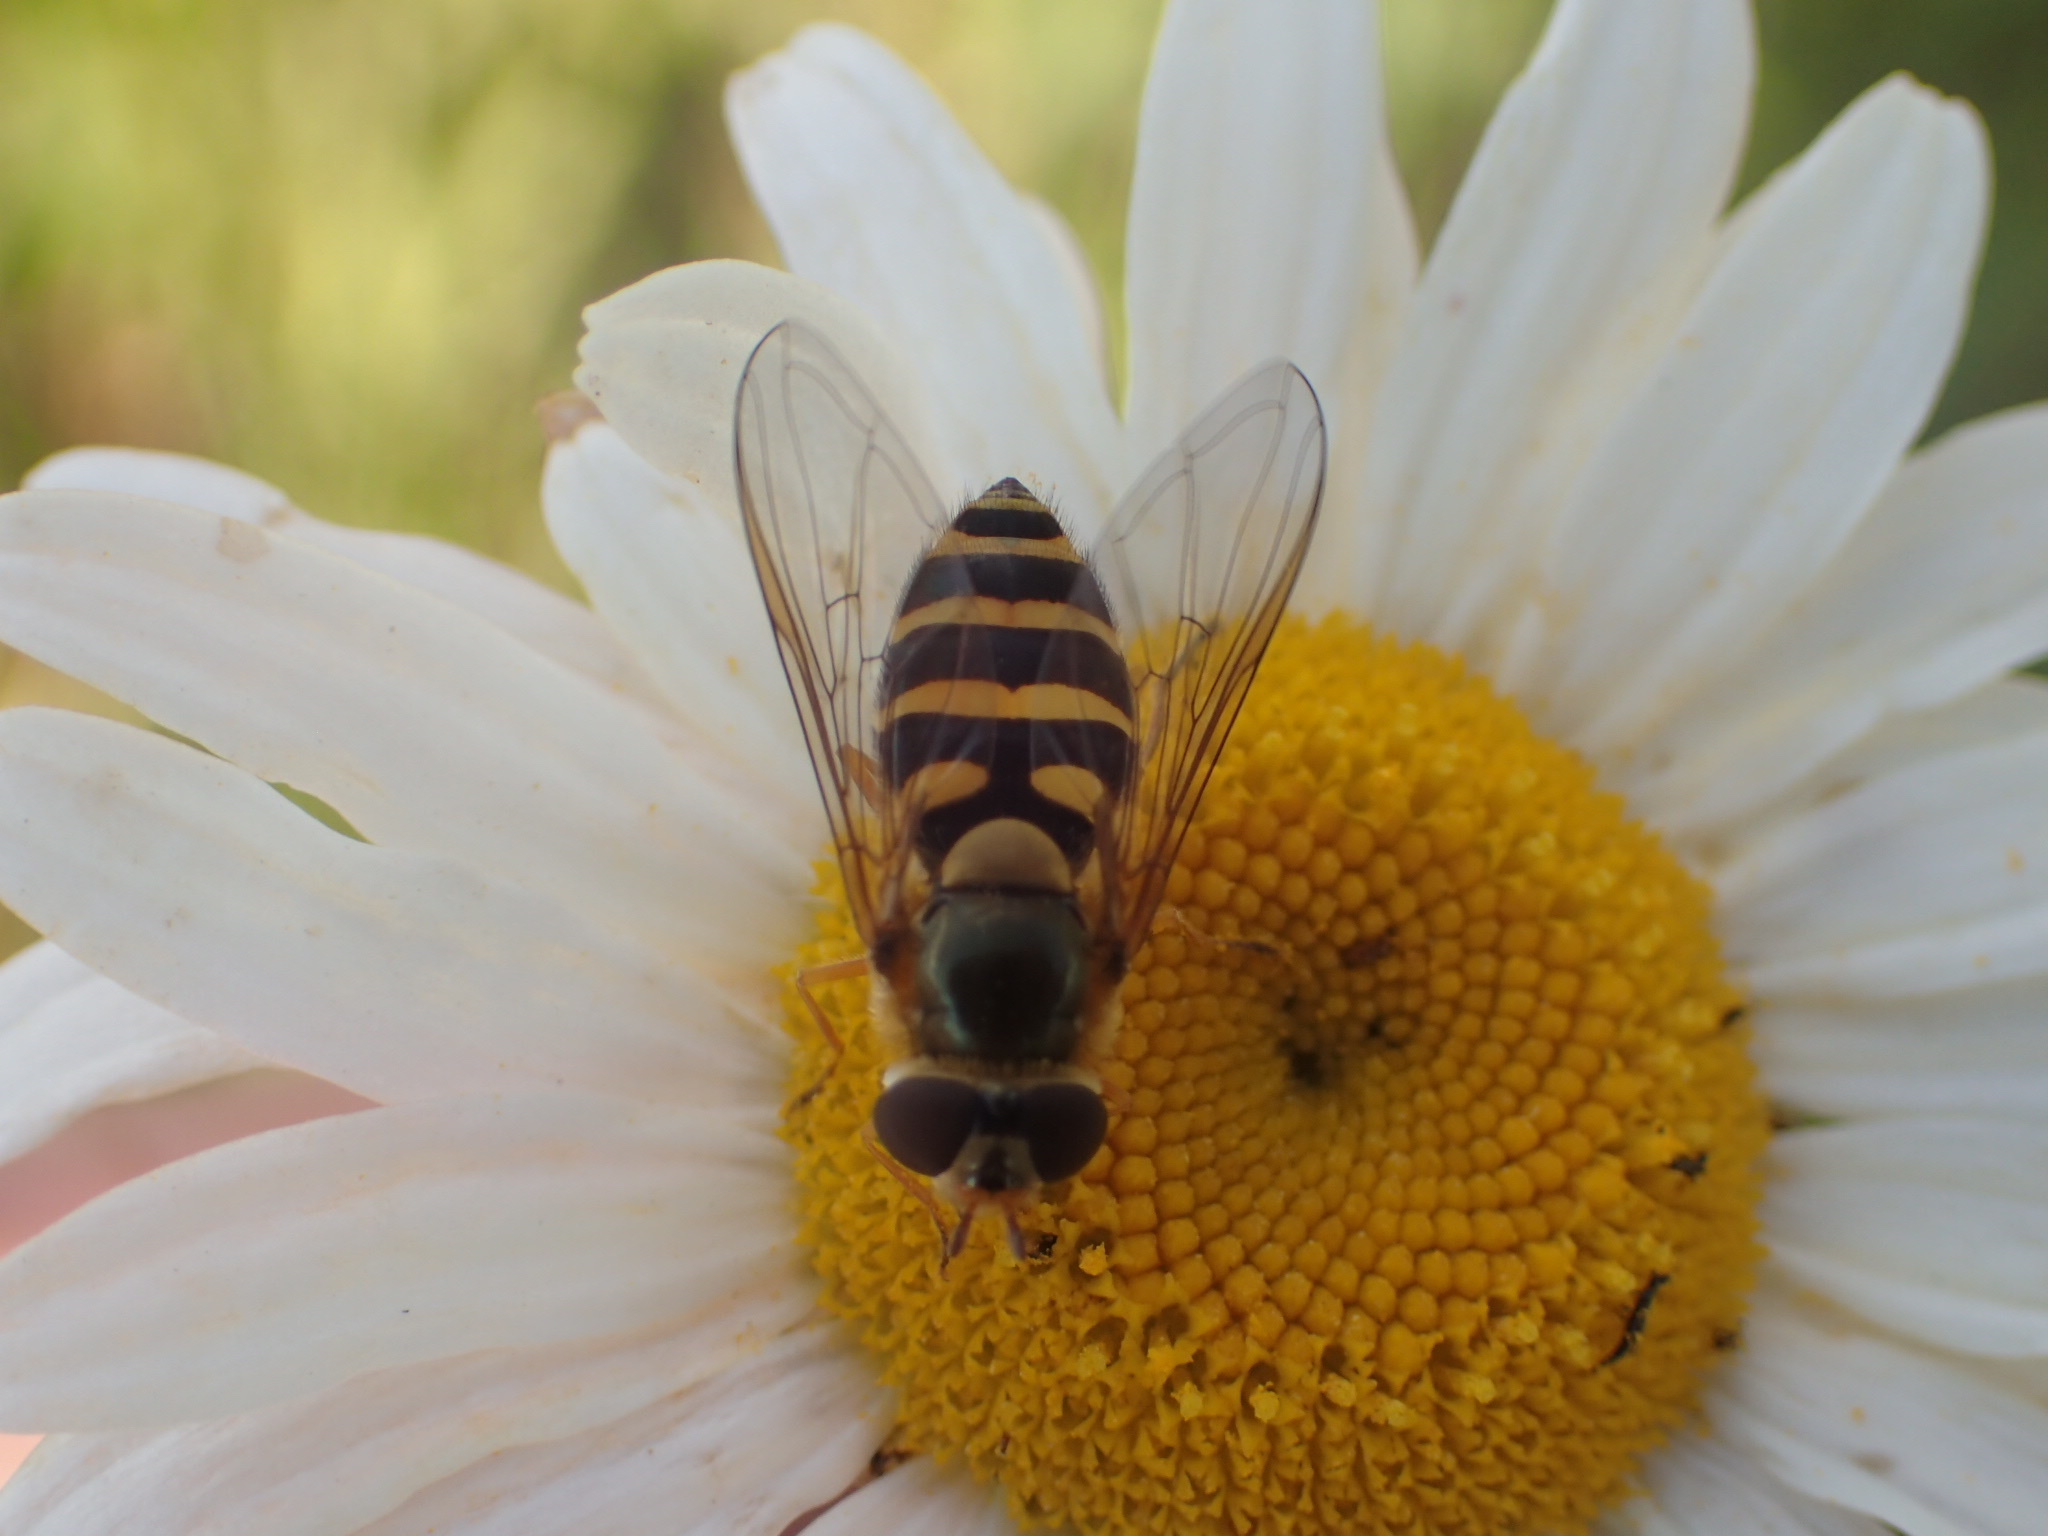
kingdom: Animalia
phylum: Arthropoda
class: Insecta
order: Diptera
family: Syrphidae
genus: Syrphus
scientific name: Syrphus ribesii
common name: Common flower fly
